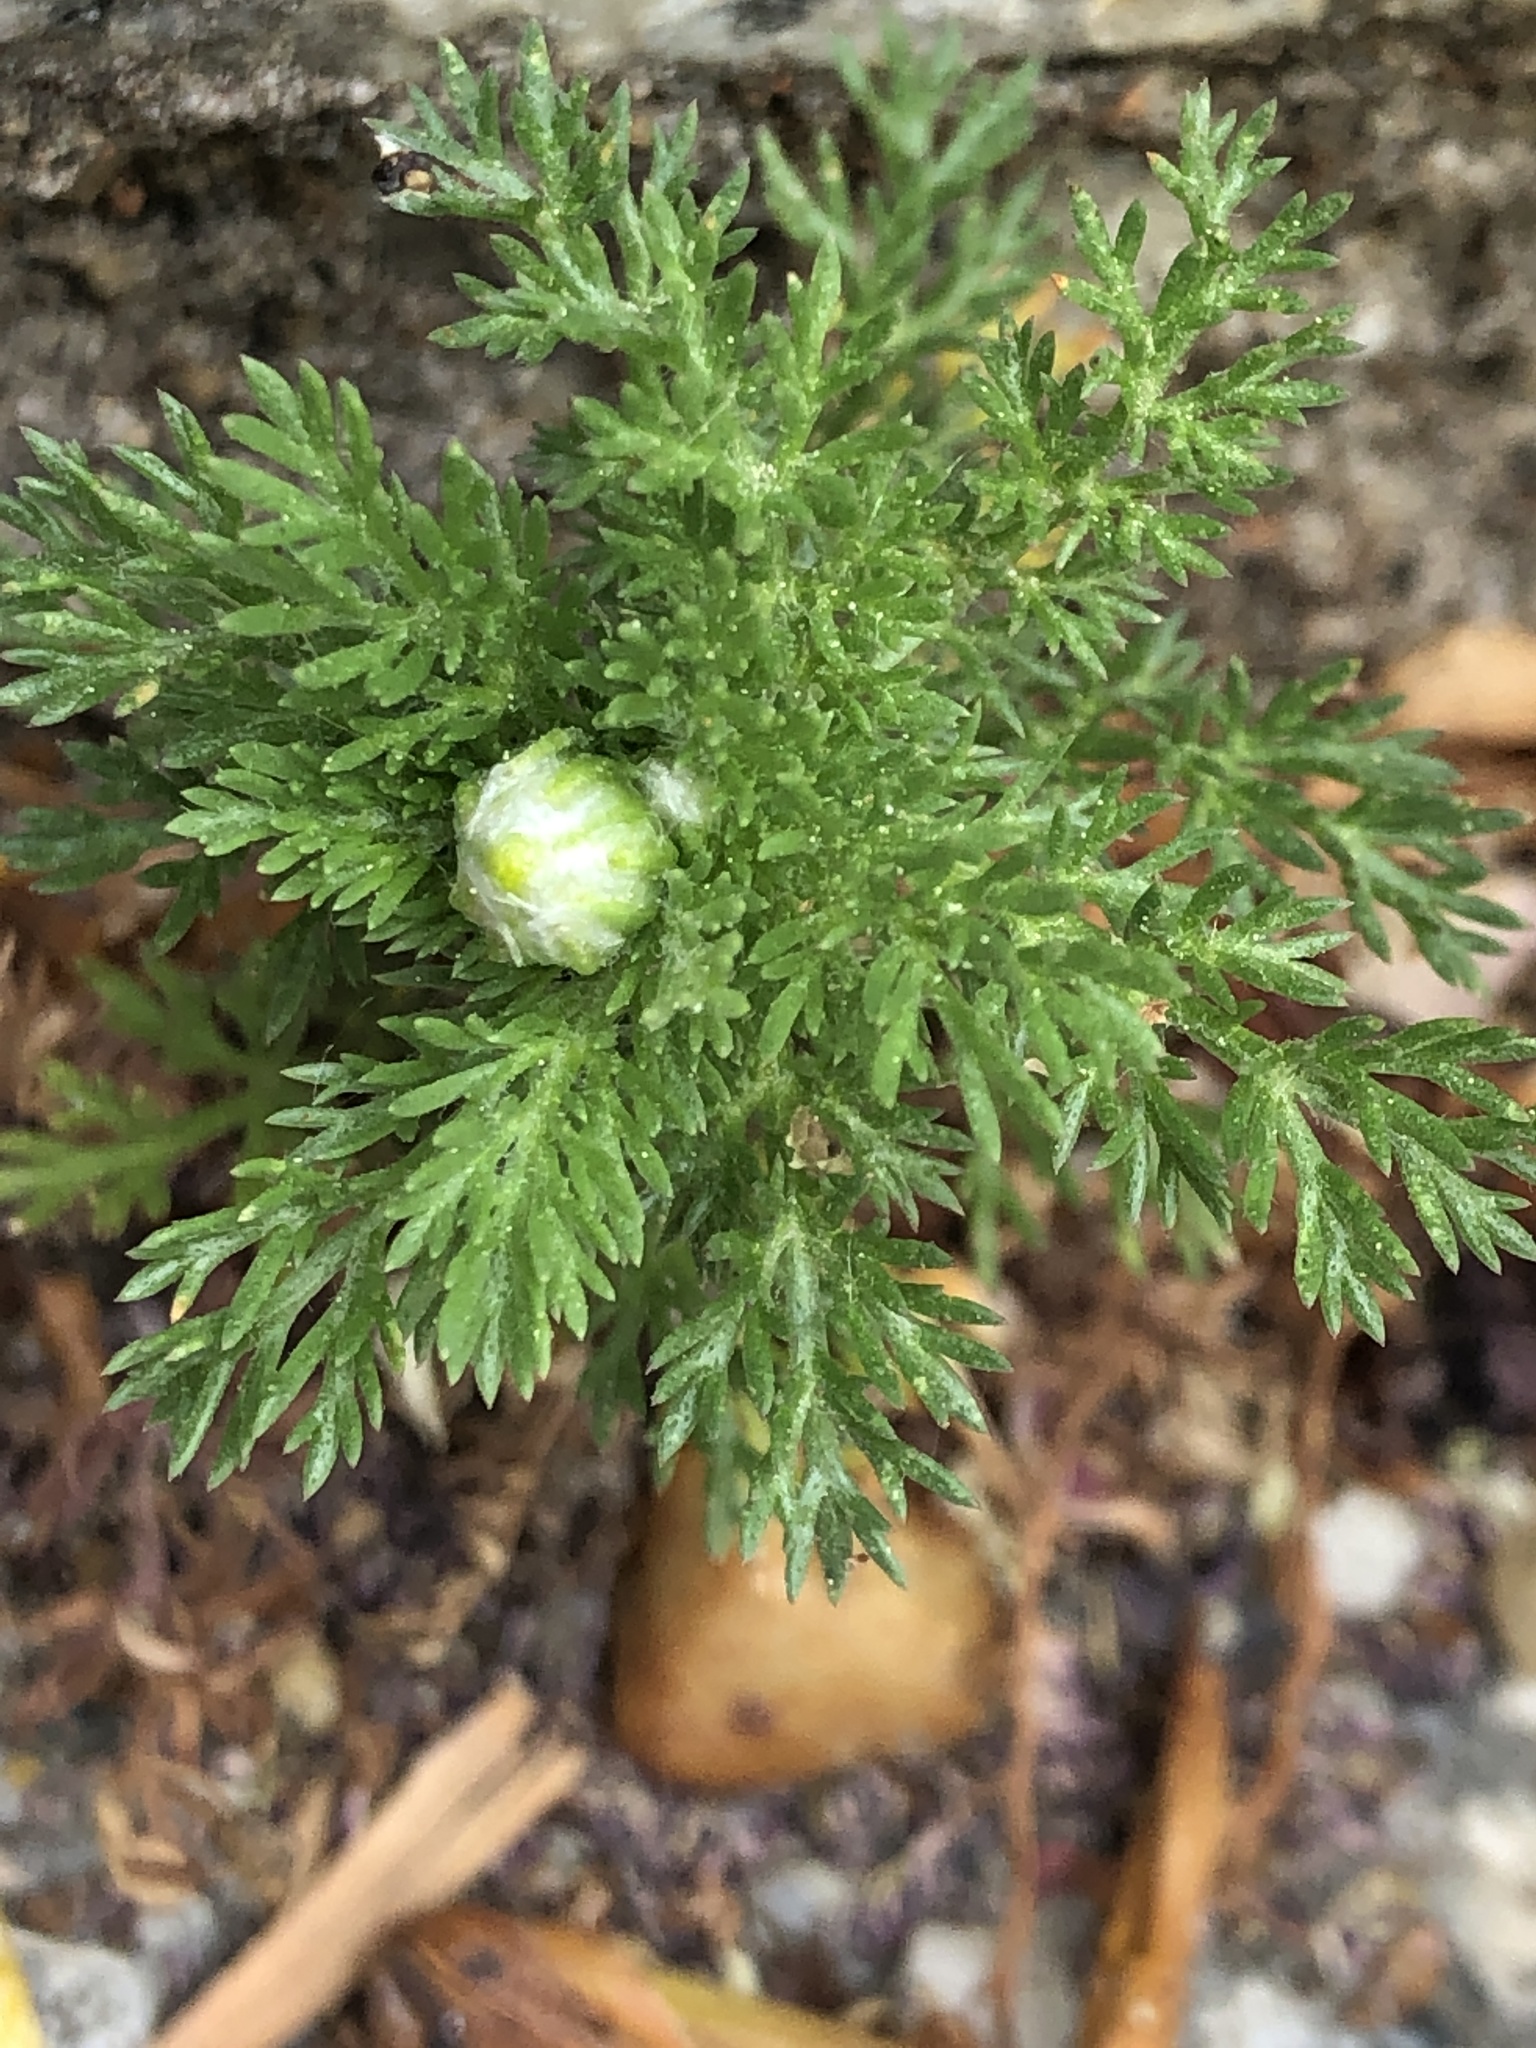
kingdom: Plantae
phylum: Tracheophyta
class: Magnoliopsida
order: Asterales
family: Asteraceae
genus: Matricaria
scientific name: Matricaria discoidea
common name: Disc mayweed
